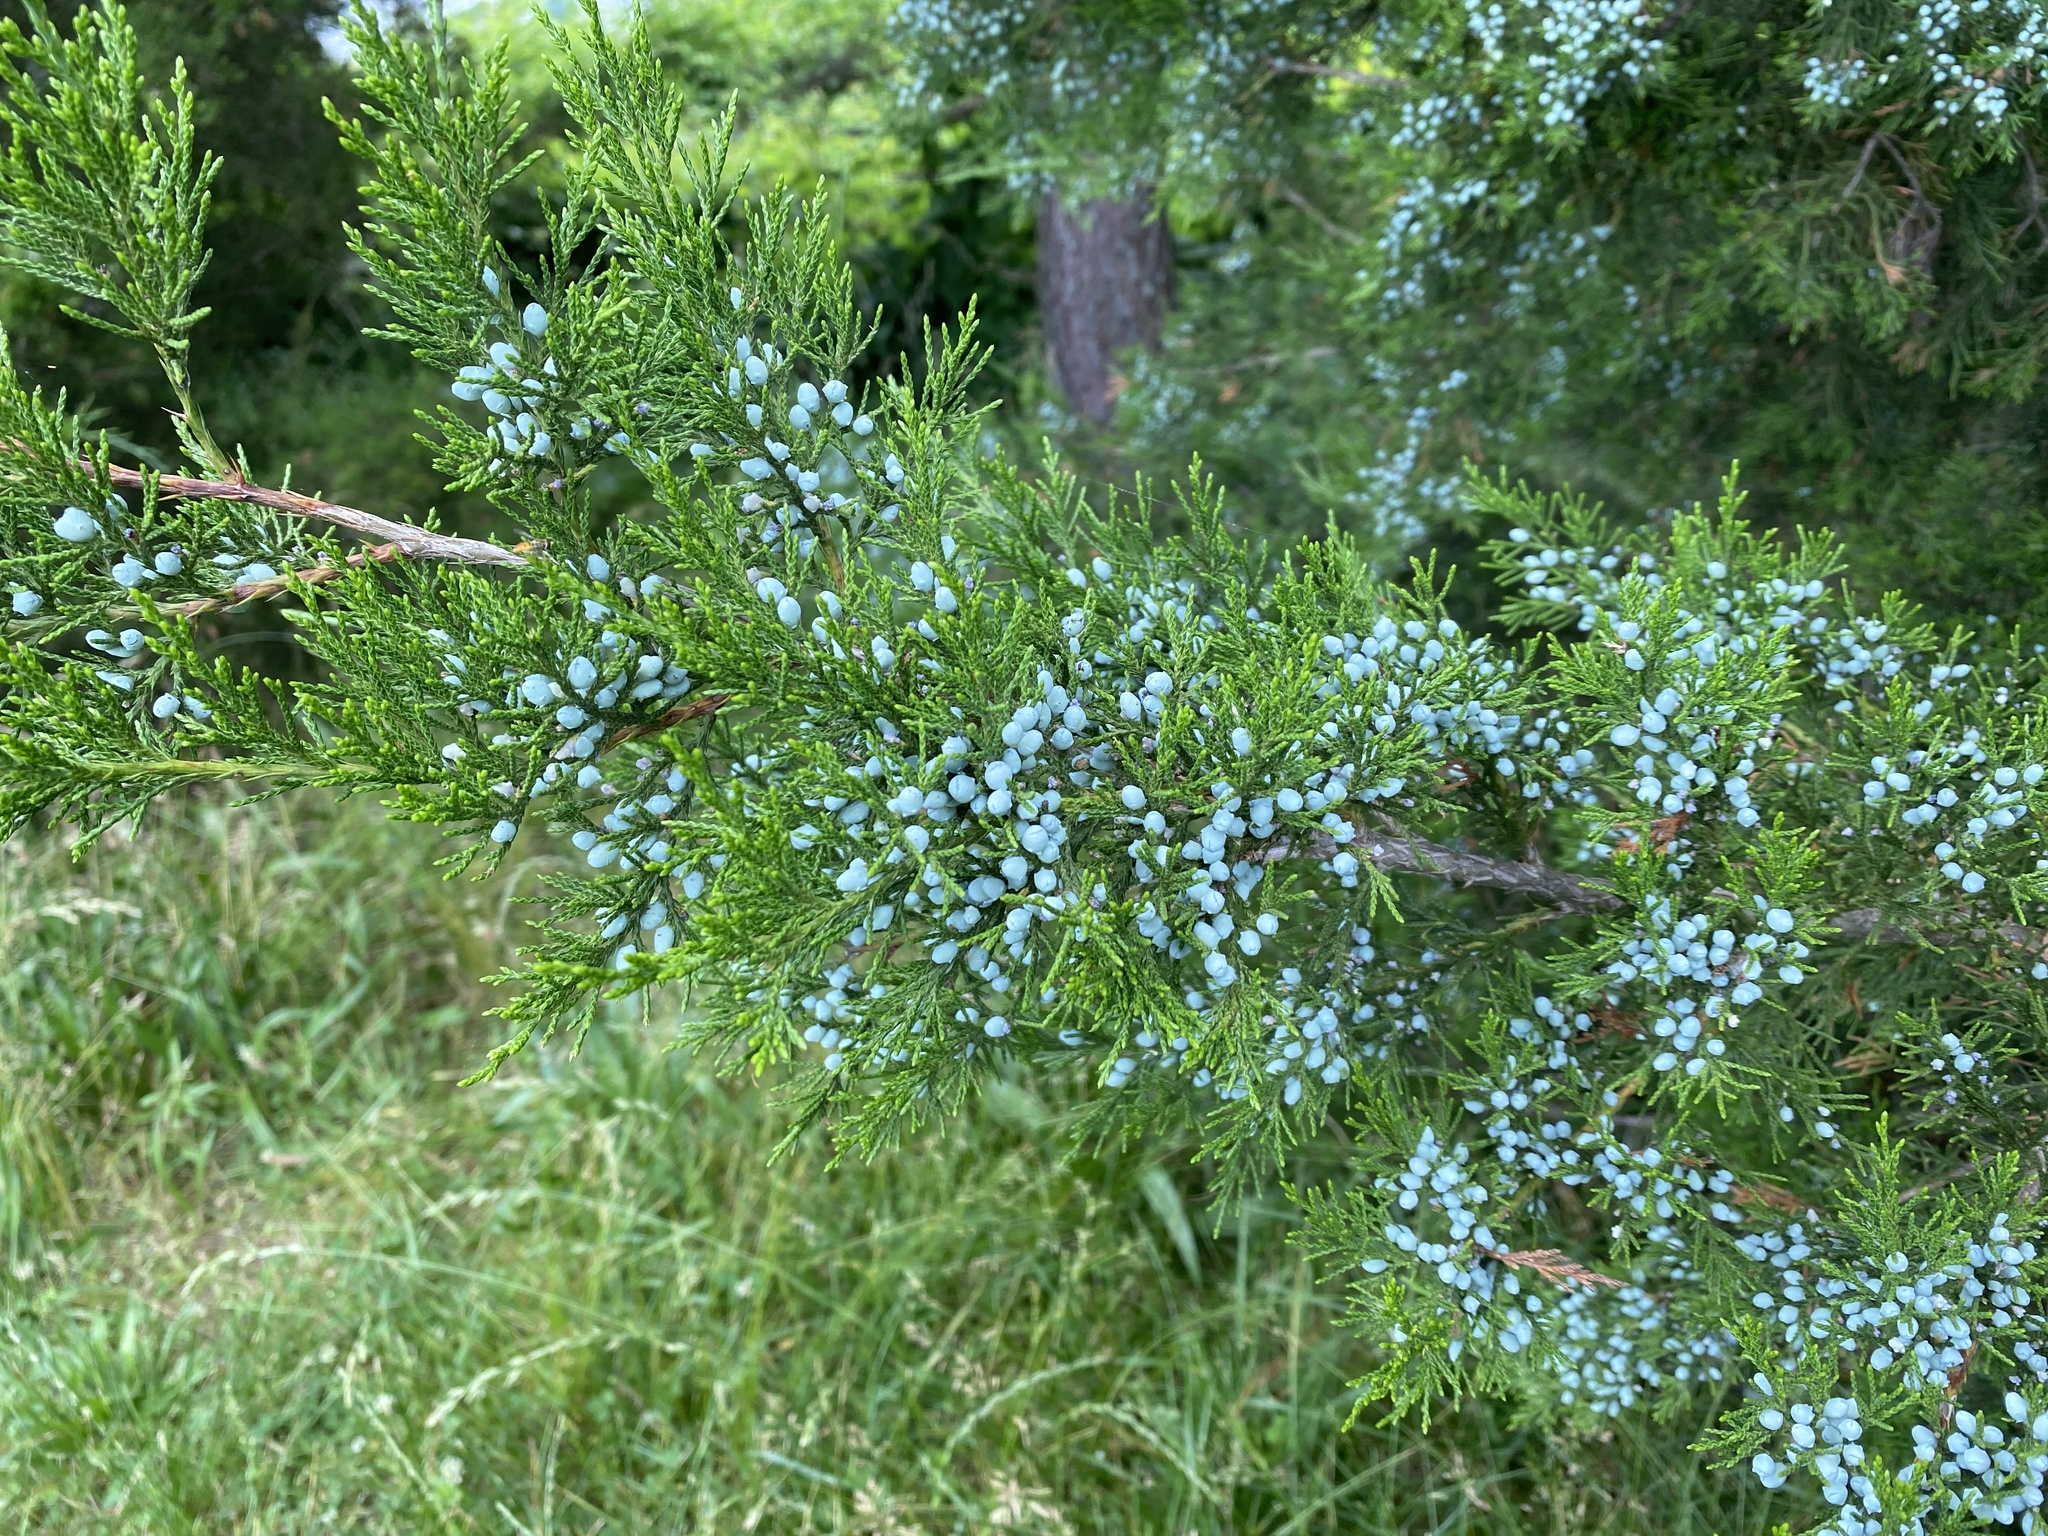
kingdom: Plantae
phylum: Tracheophyta
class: Pinopsida
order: Pinales
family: Cupressaceae
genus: Juniperus
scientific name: Juniperus virginiana
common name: Red juniper
